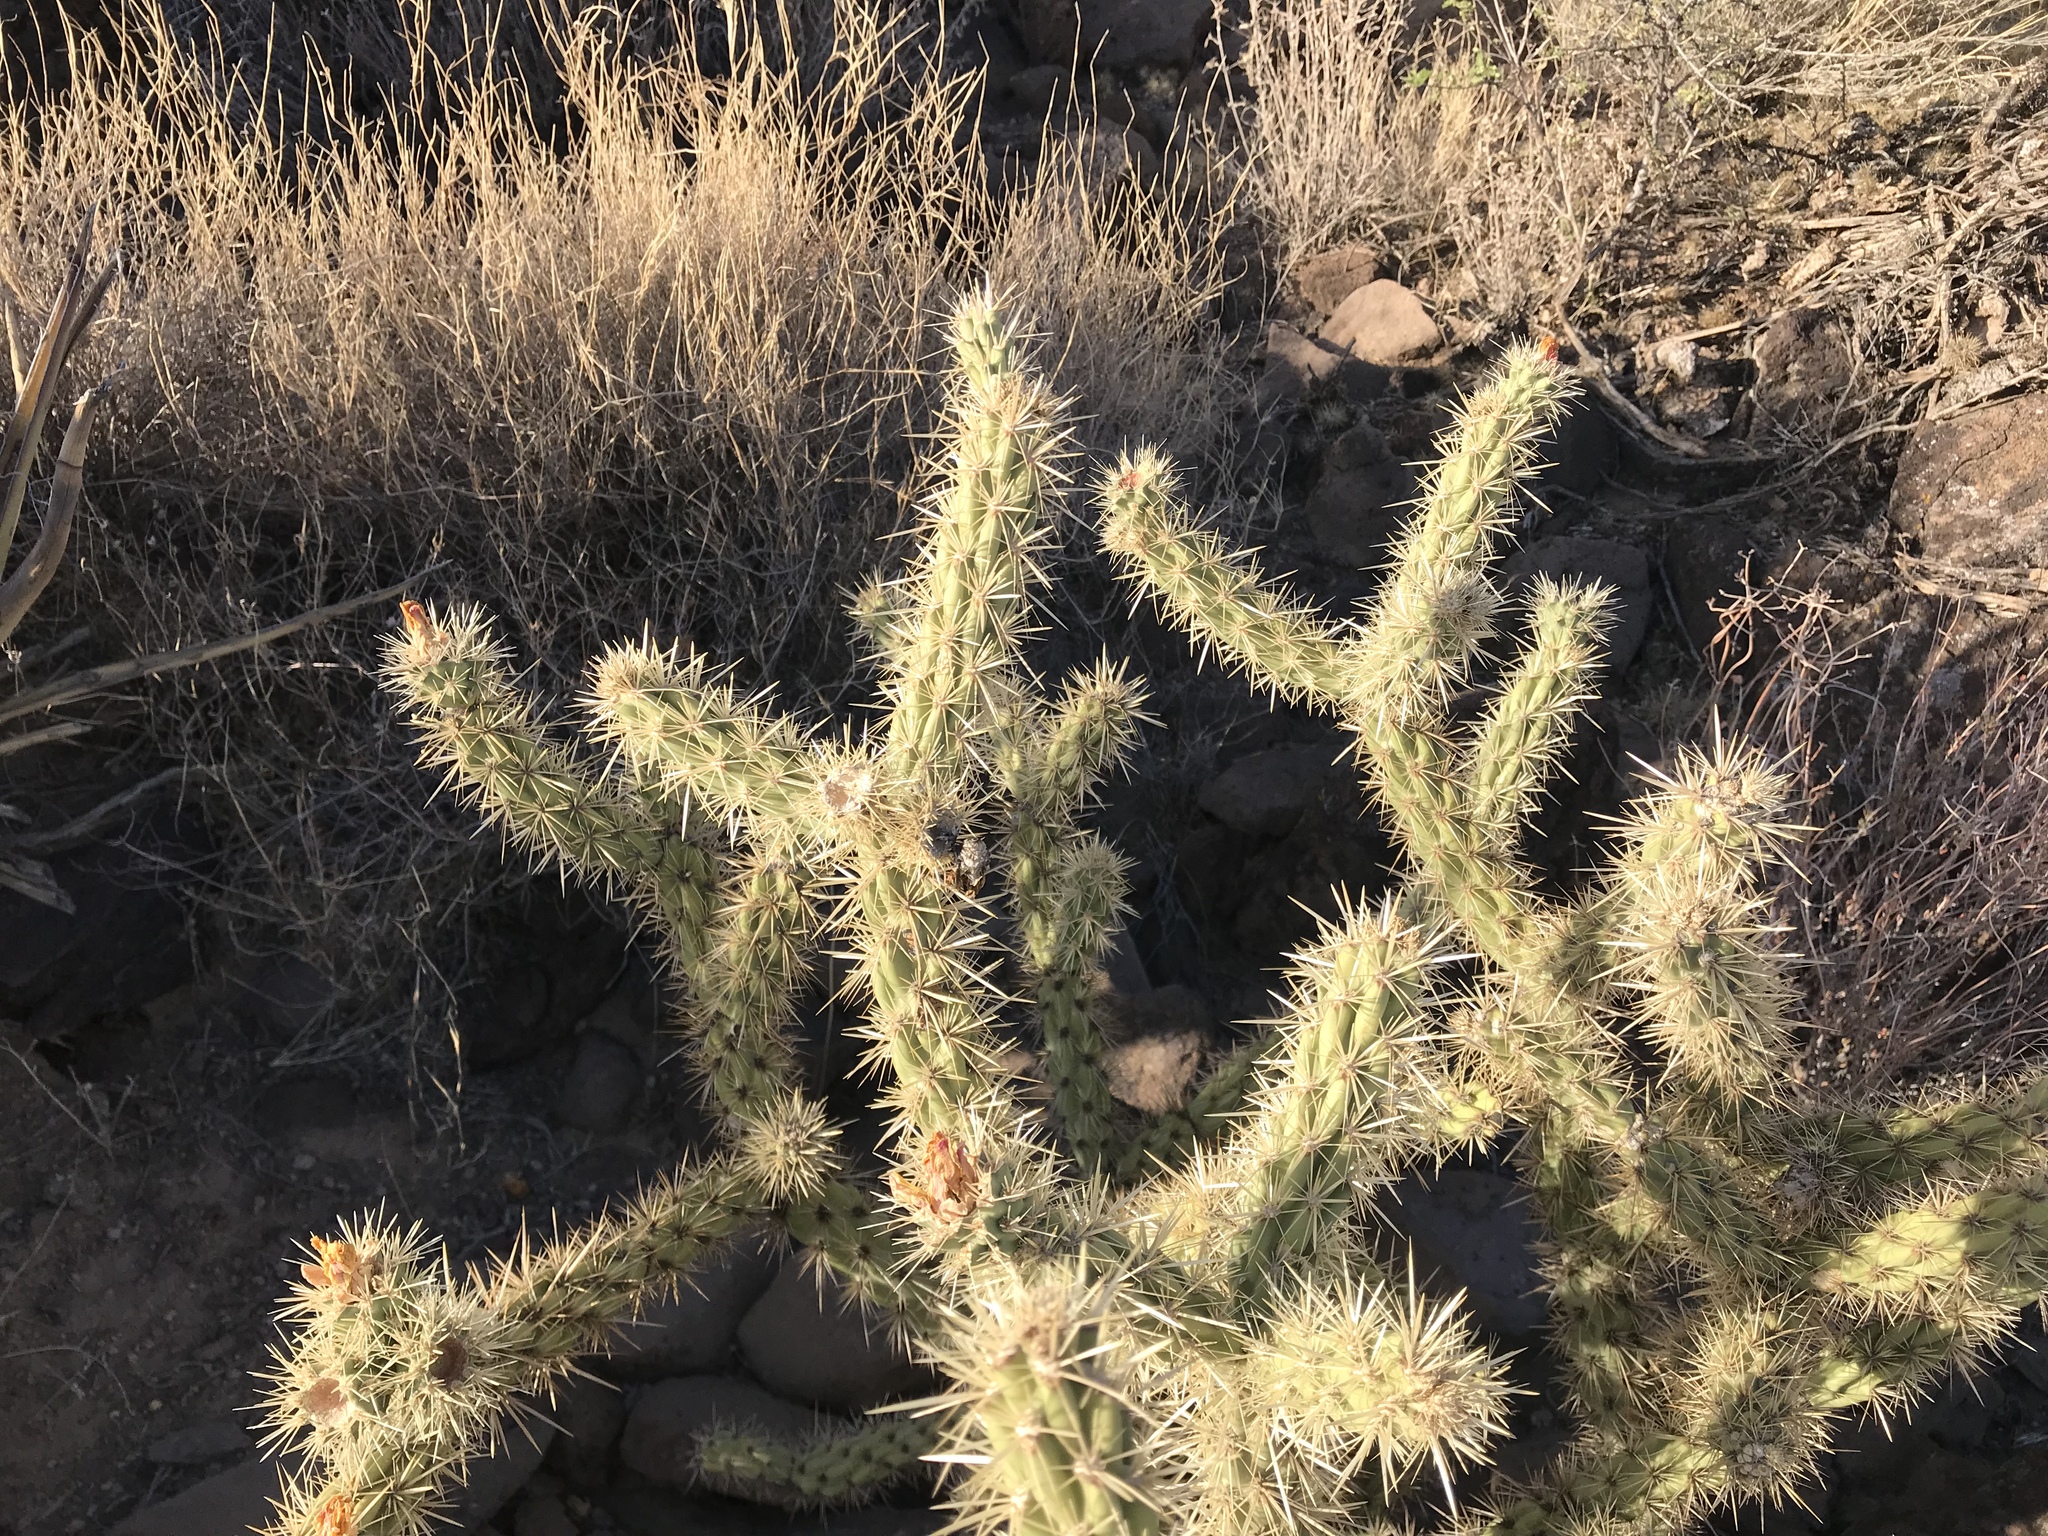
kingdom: Plantae
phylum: Tracheophyta
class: Magnoliopsida
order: Caryophyllales
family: Cactaceae
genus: Cylindropuntia
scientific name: Cylindropuntia acanthocarpa
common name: Buckhorn cholla
